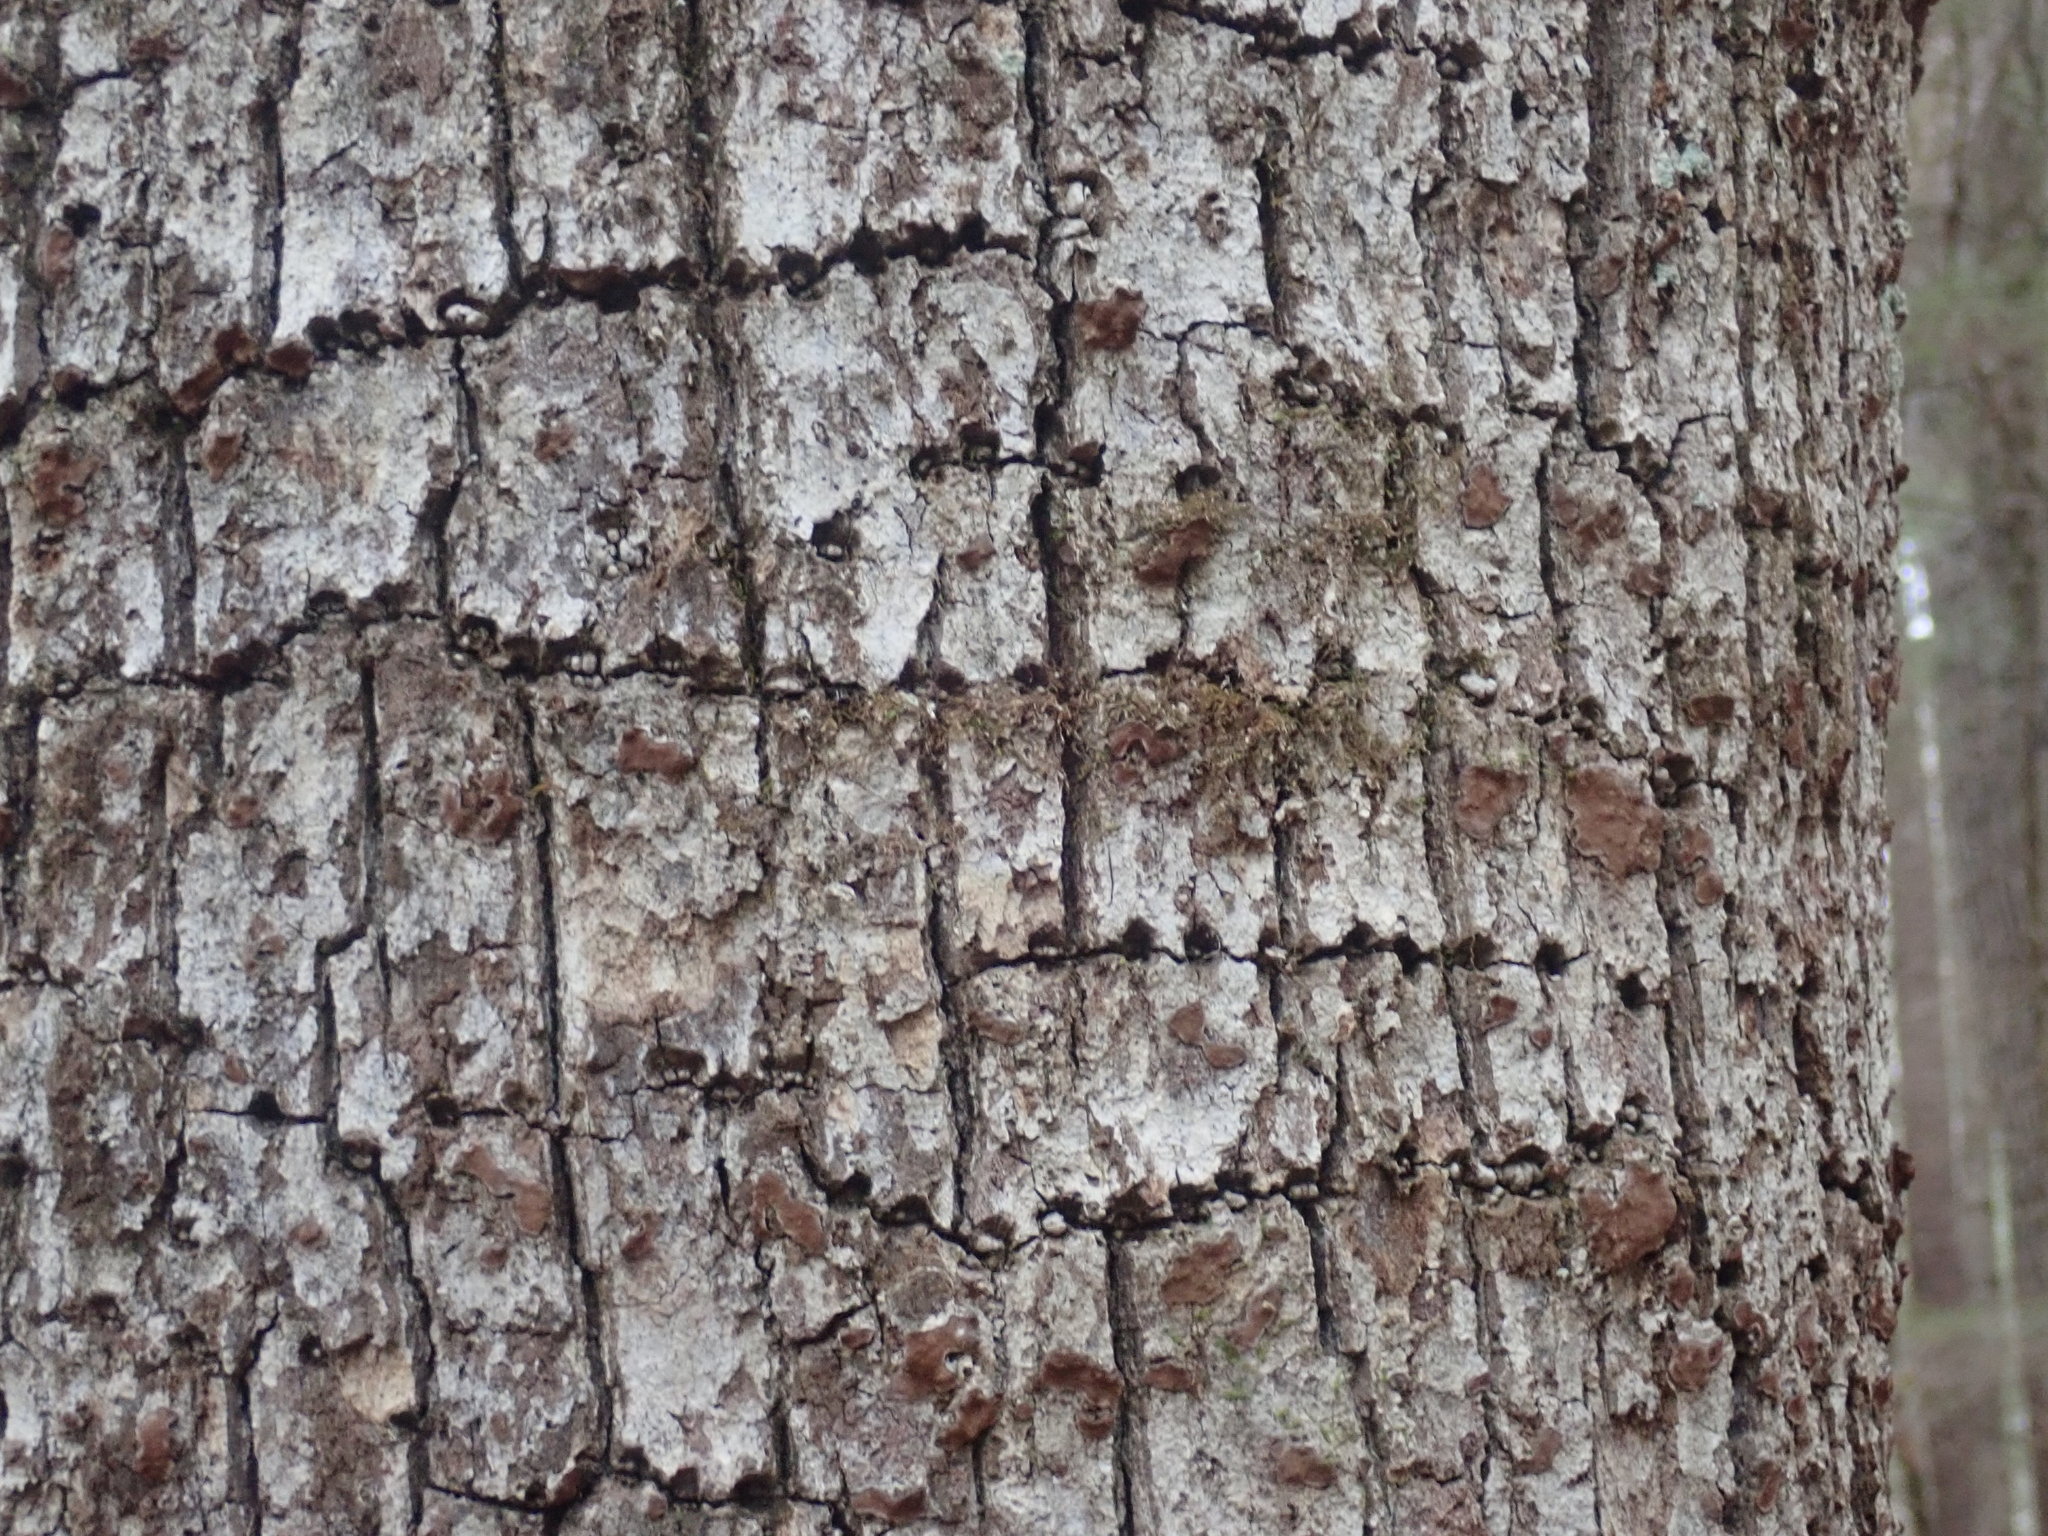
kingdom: Animalia
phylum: Chordata
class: Aves
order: Piciformes
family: Picidae
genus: Sphyrapicus
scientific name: Sphyrapicus varius
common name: Yellow-bellied sapsucker
